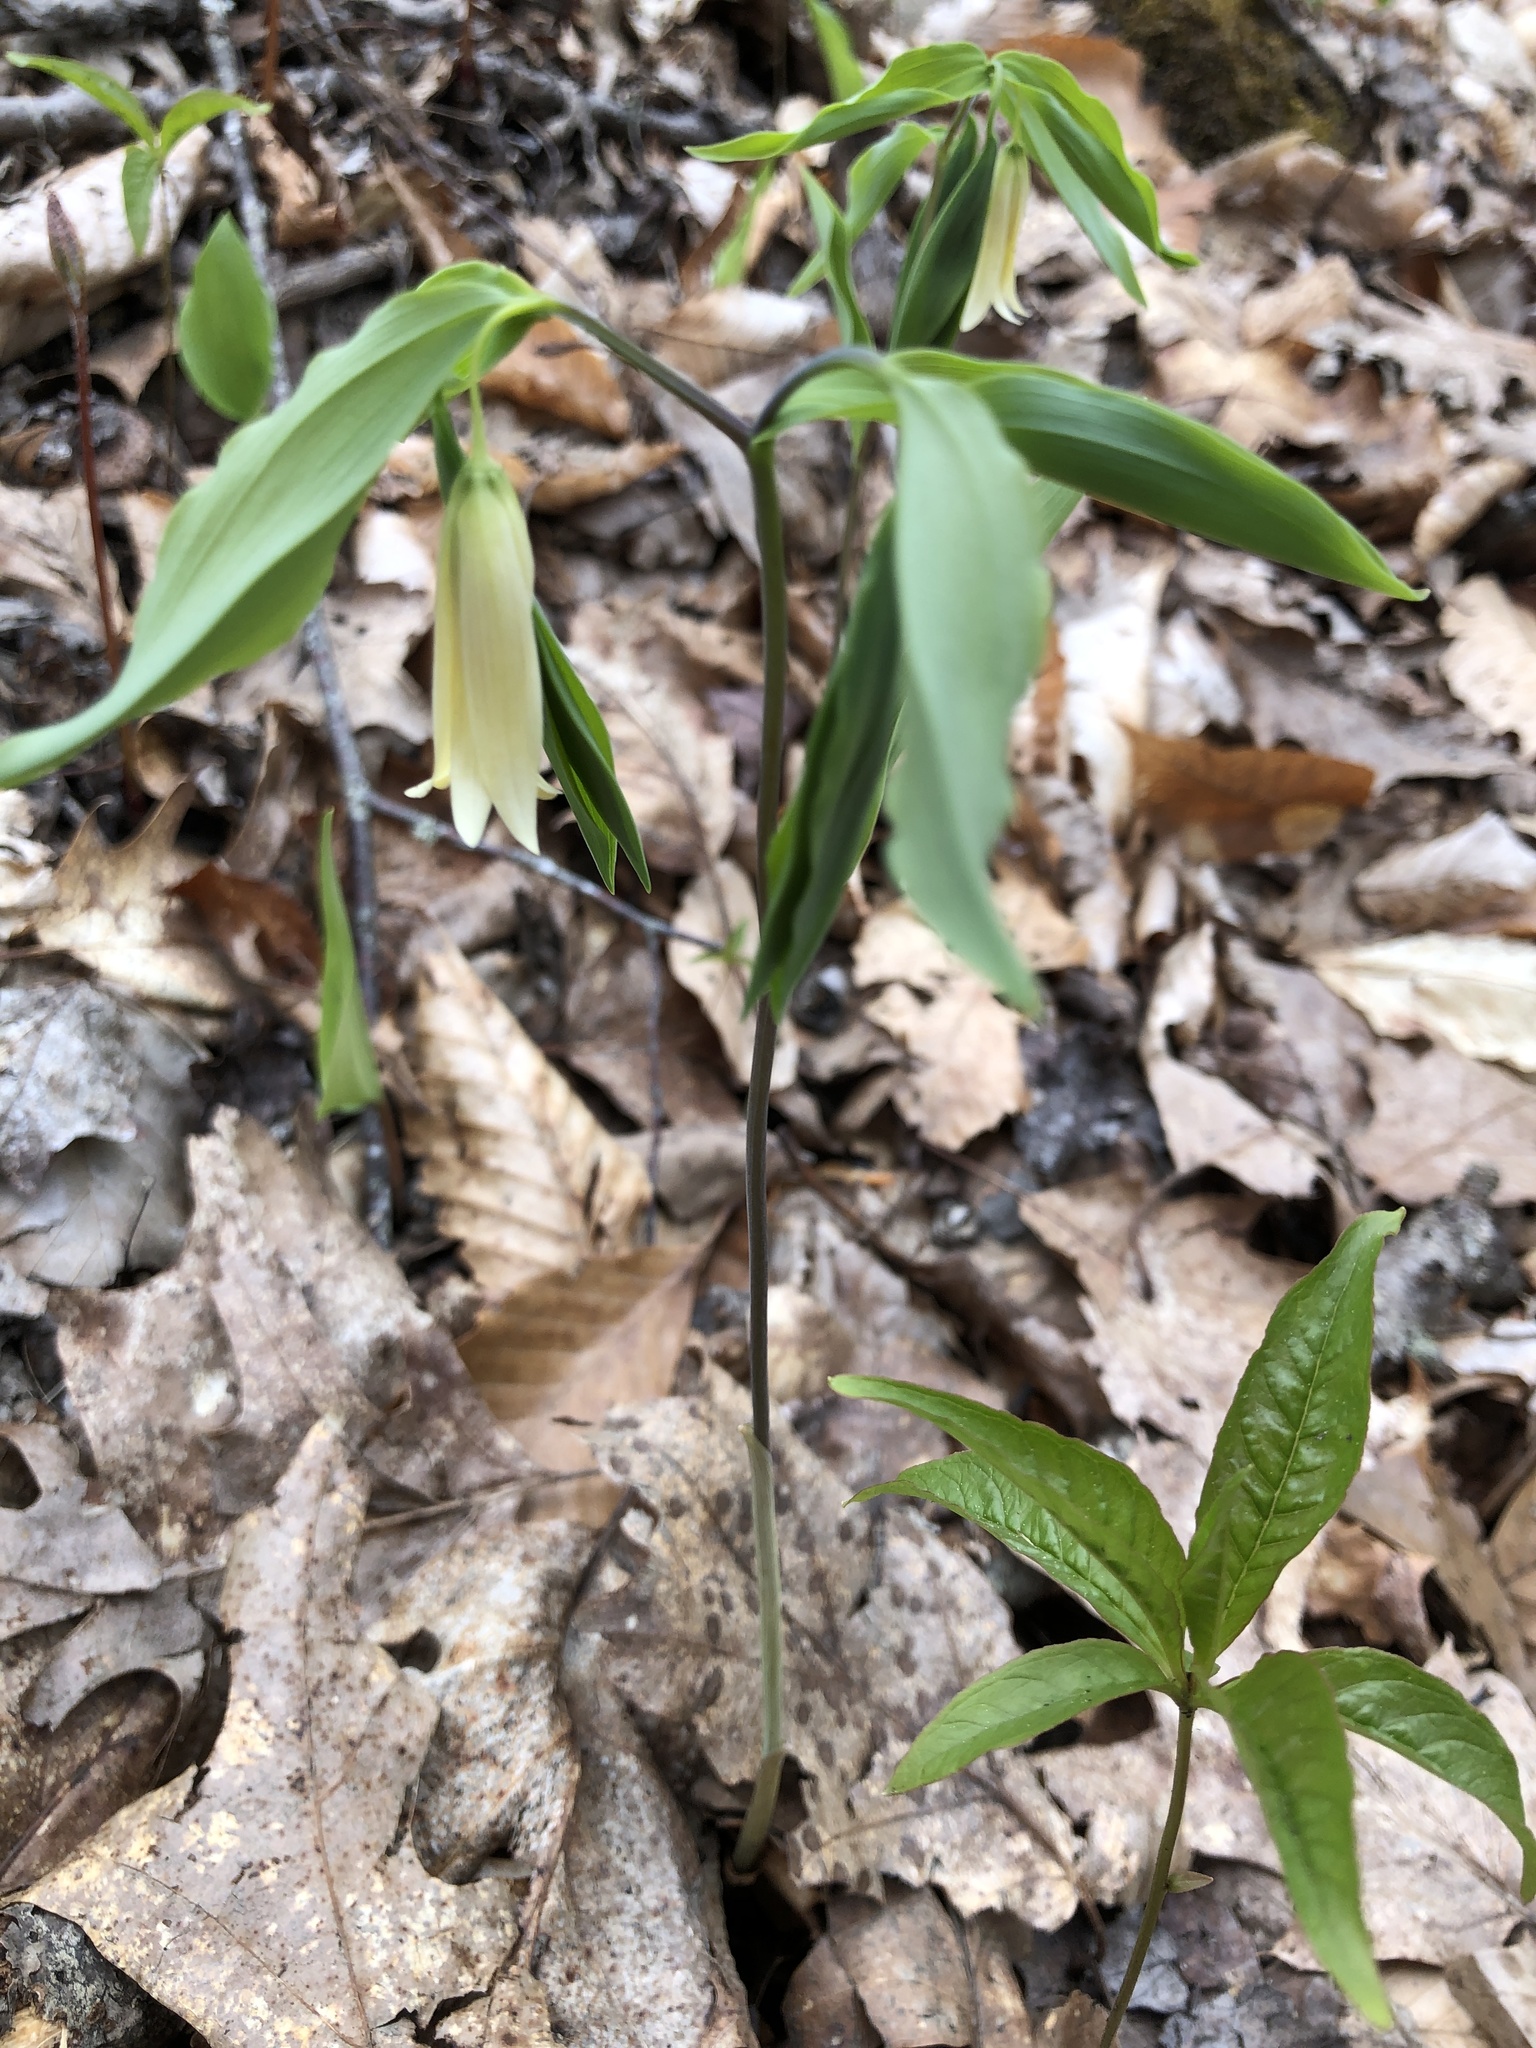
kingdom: Plantae
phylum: Tracheophyta
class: Liliopsida
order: Liliales
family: Colchicaceae
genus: Uvularia
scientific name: Uvularia sessilifolia
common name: Straw-lily
